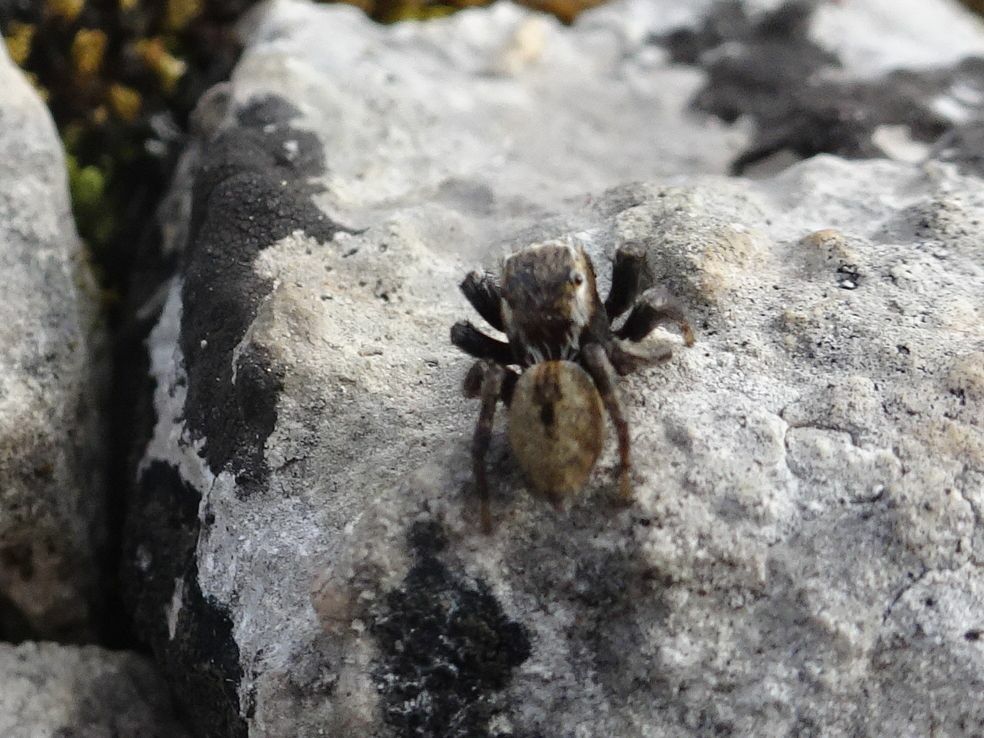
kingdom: Animalia
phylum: Arthropoda
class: Arachnida
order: Araneae
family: Salticidae
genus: Evarcha
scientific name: Evarcha michailovi
